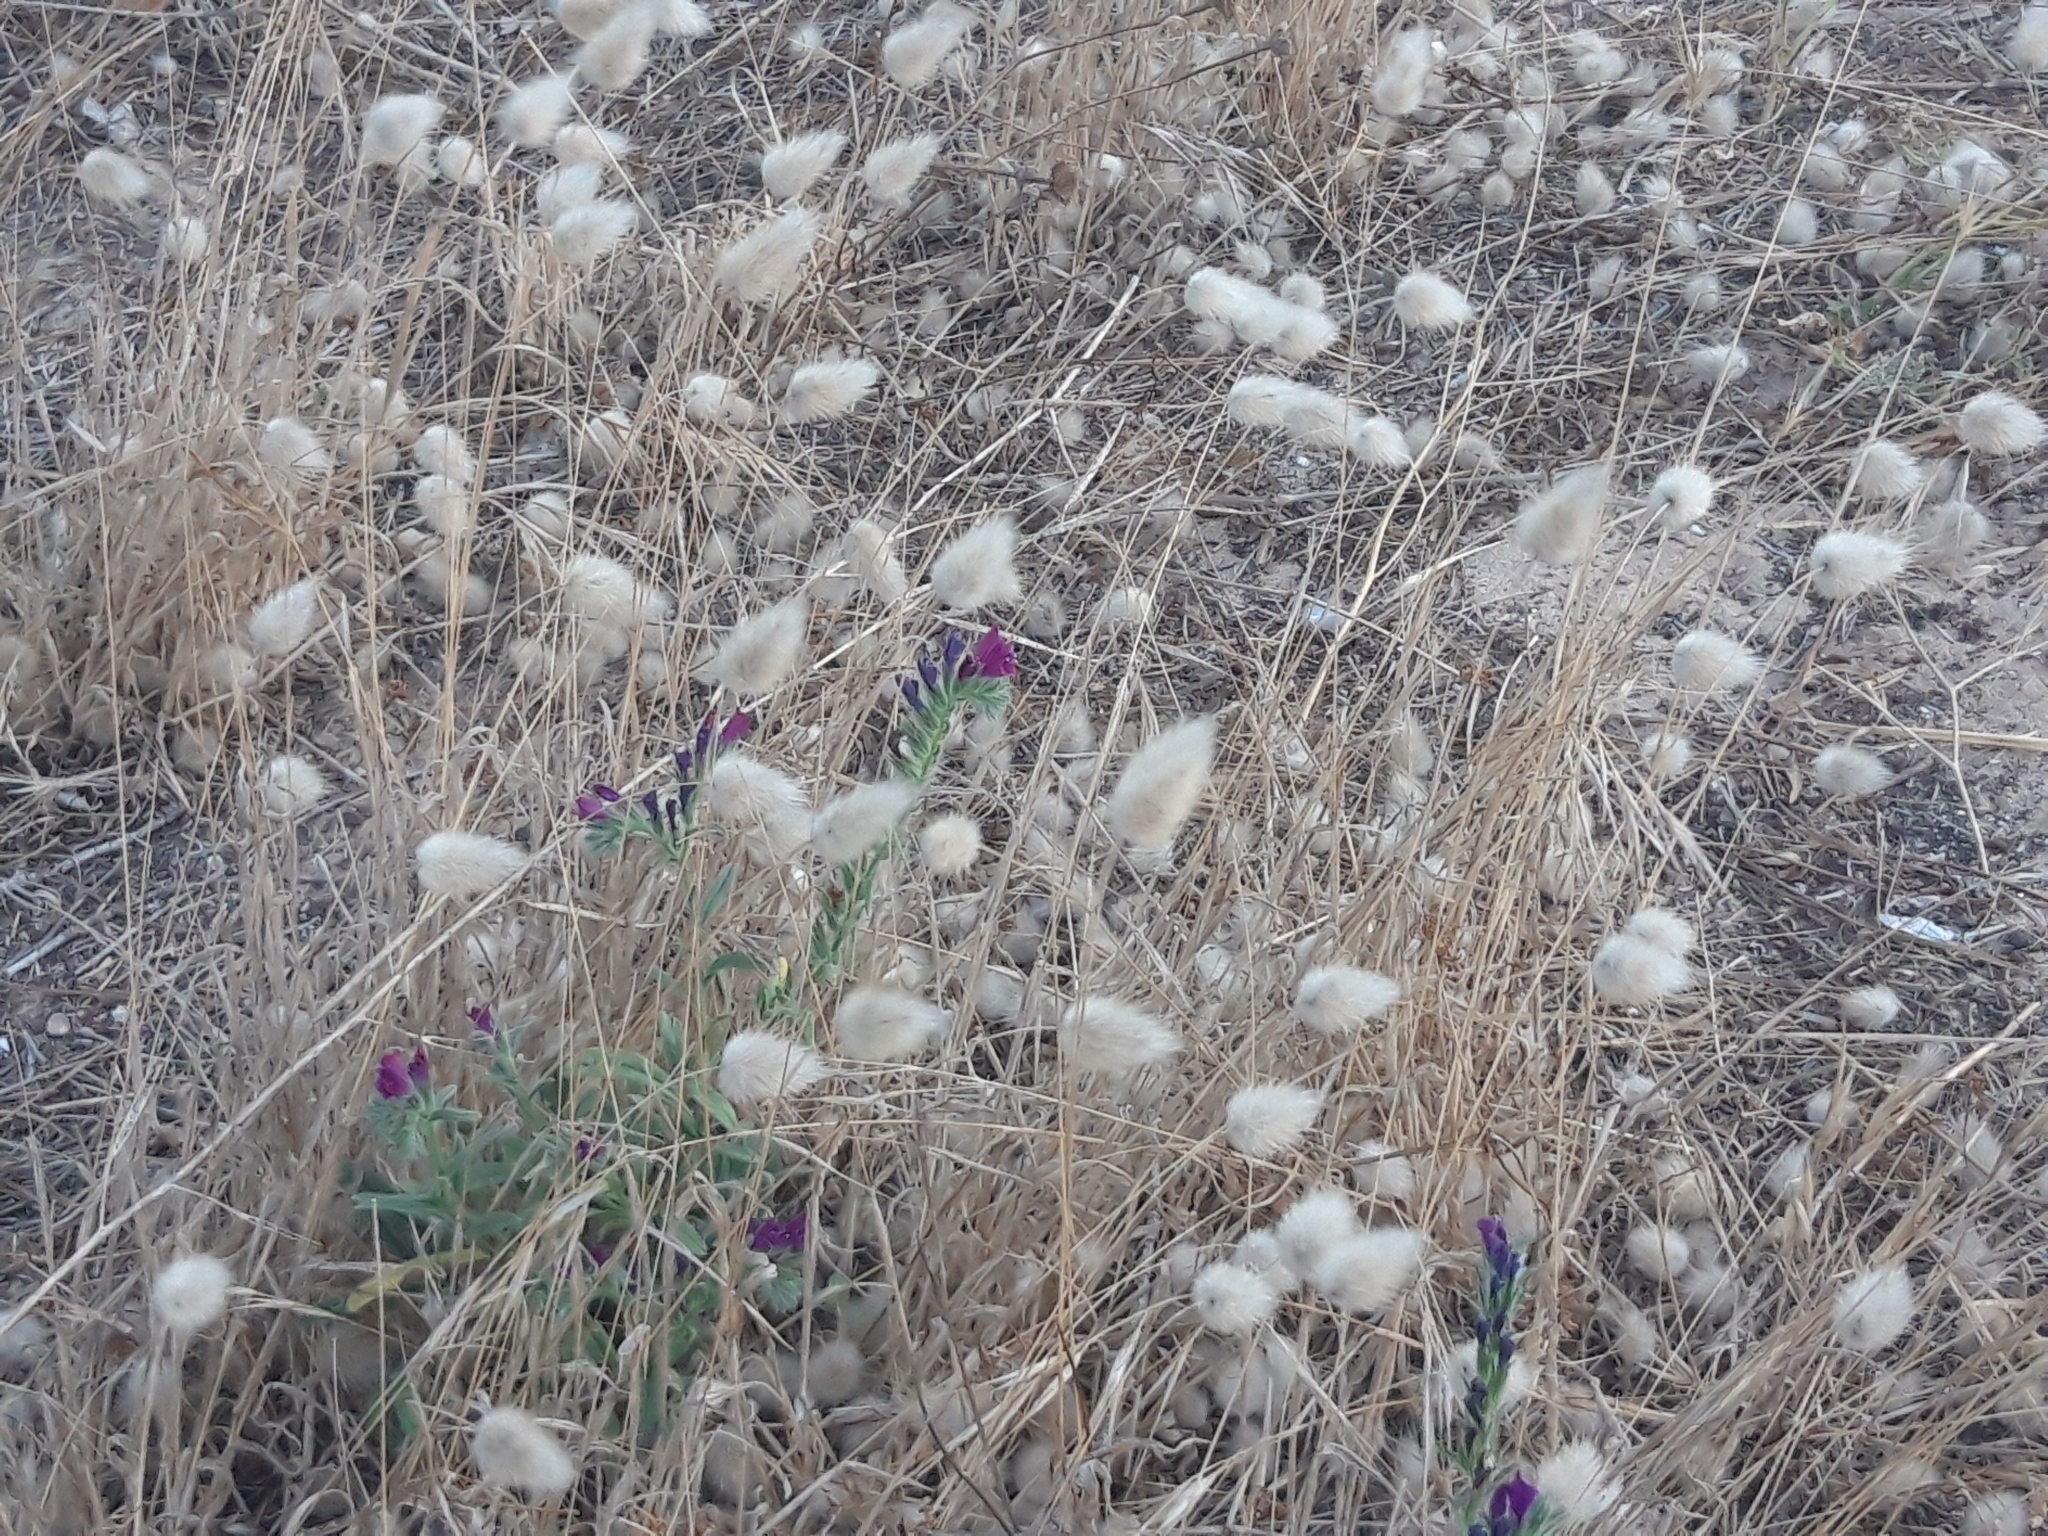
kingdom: Plantae
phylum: Tracheophyta
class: Liliopsida
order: Poales
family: Poaceae
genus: Lagurus
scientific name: Lagurus ovatus
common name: Hare's-tail
